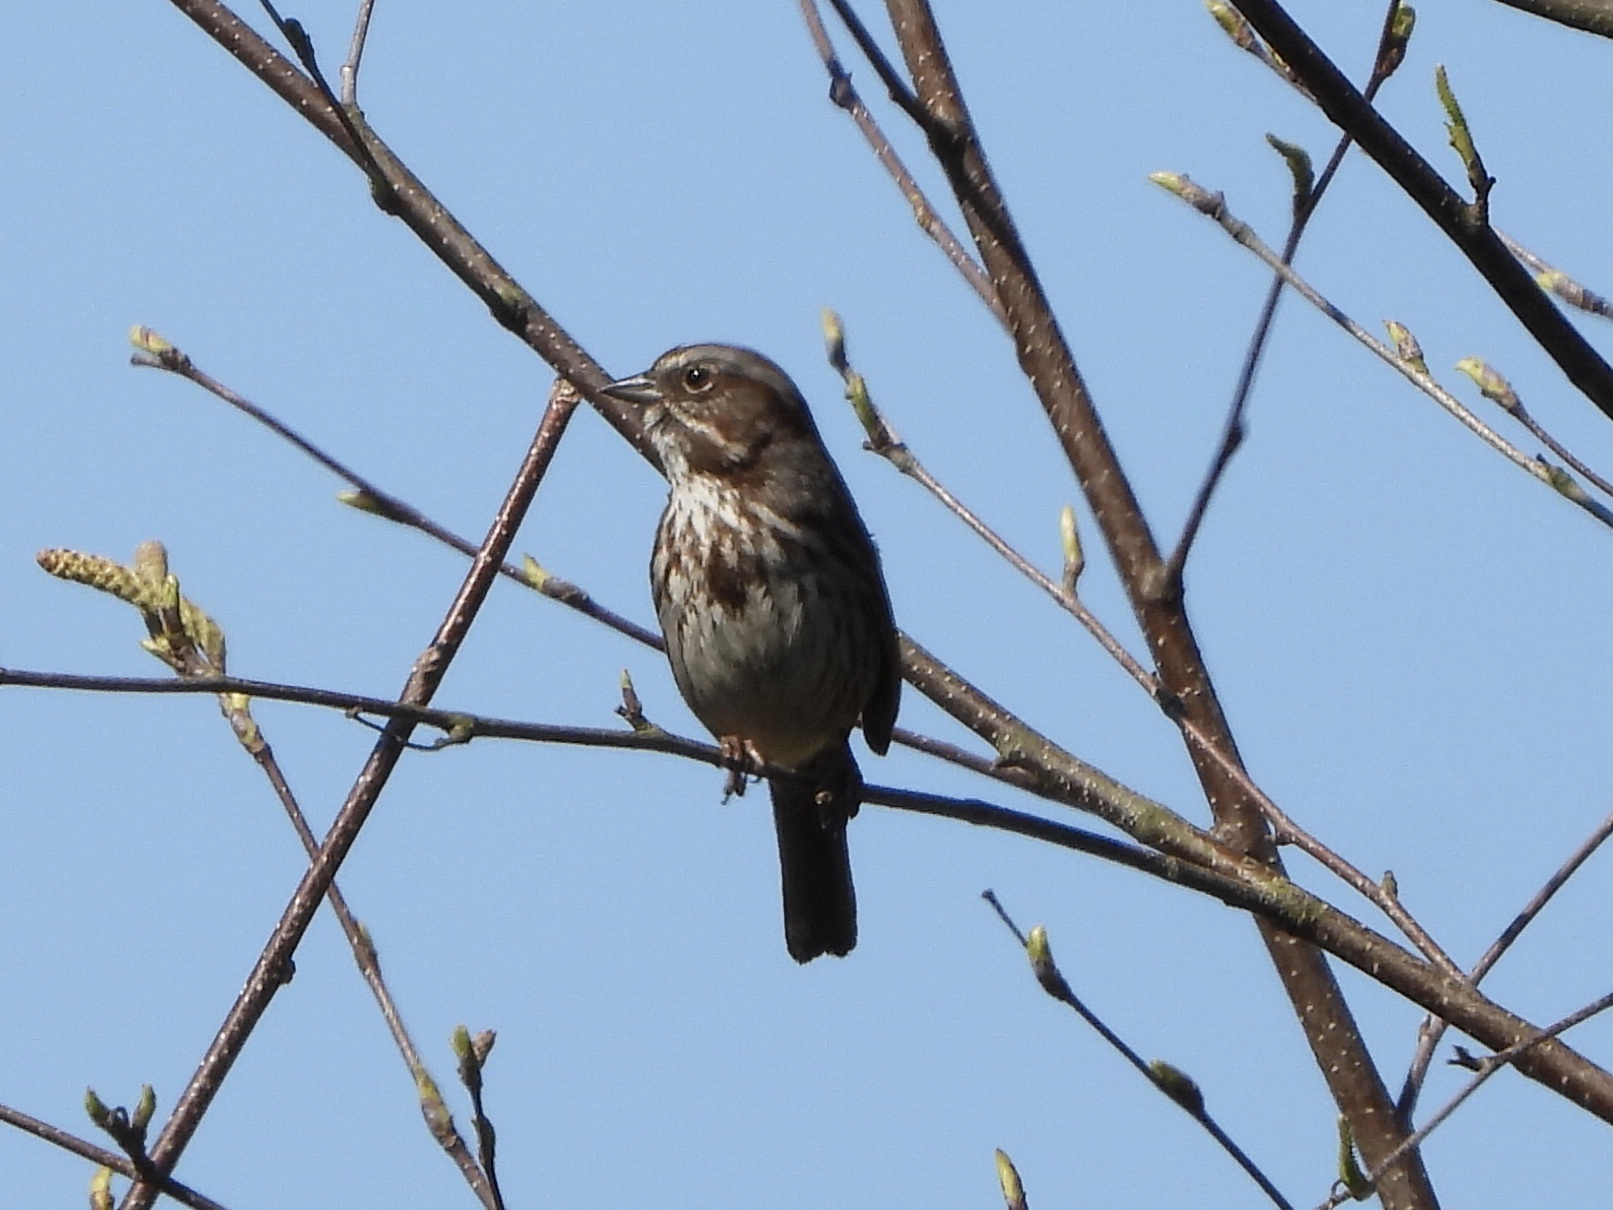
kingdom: Animalia
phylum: Chordata
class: Aves
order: Passeriformes
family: Passerellidae
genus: Melospiza
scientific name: Melospiza melodia
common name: Song sparrow
